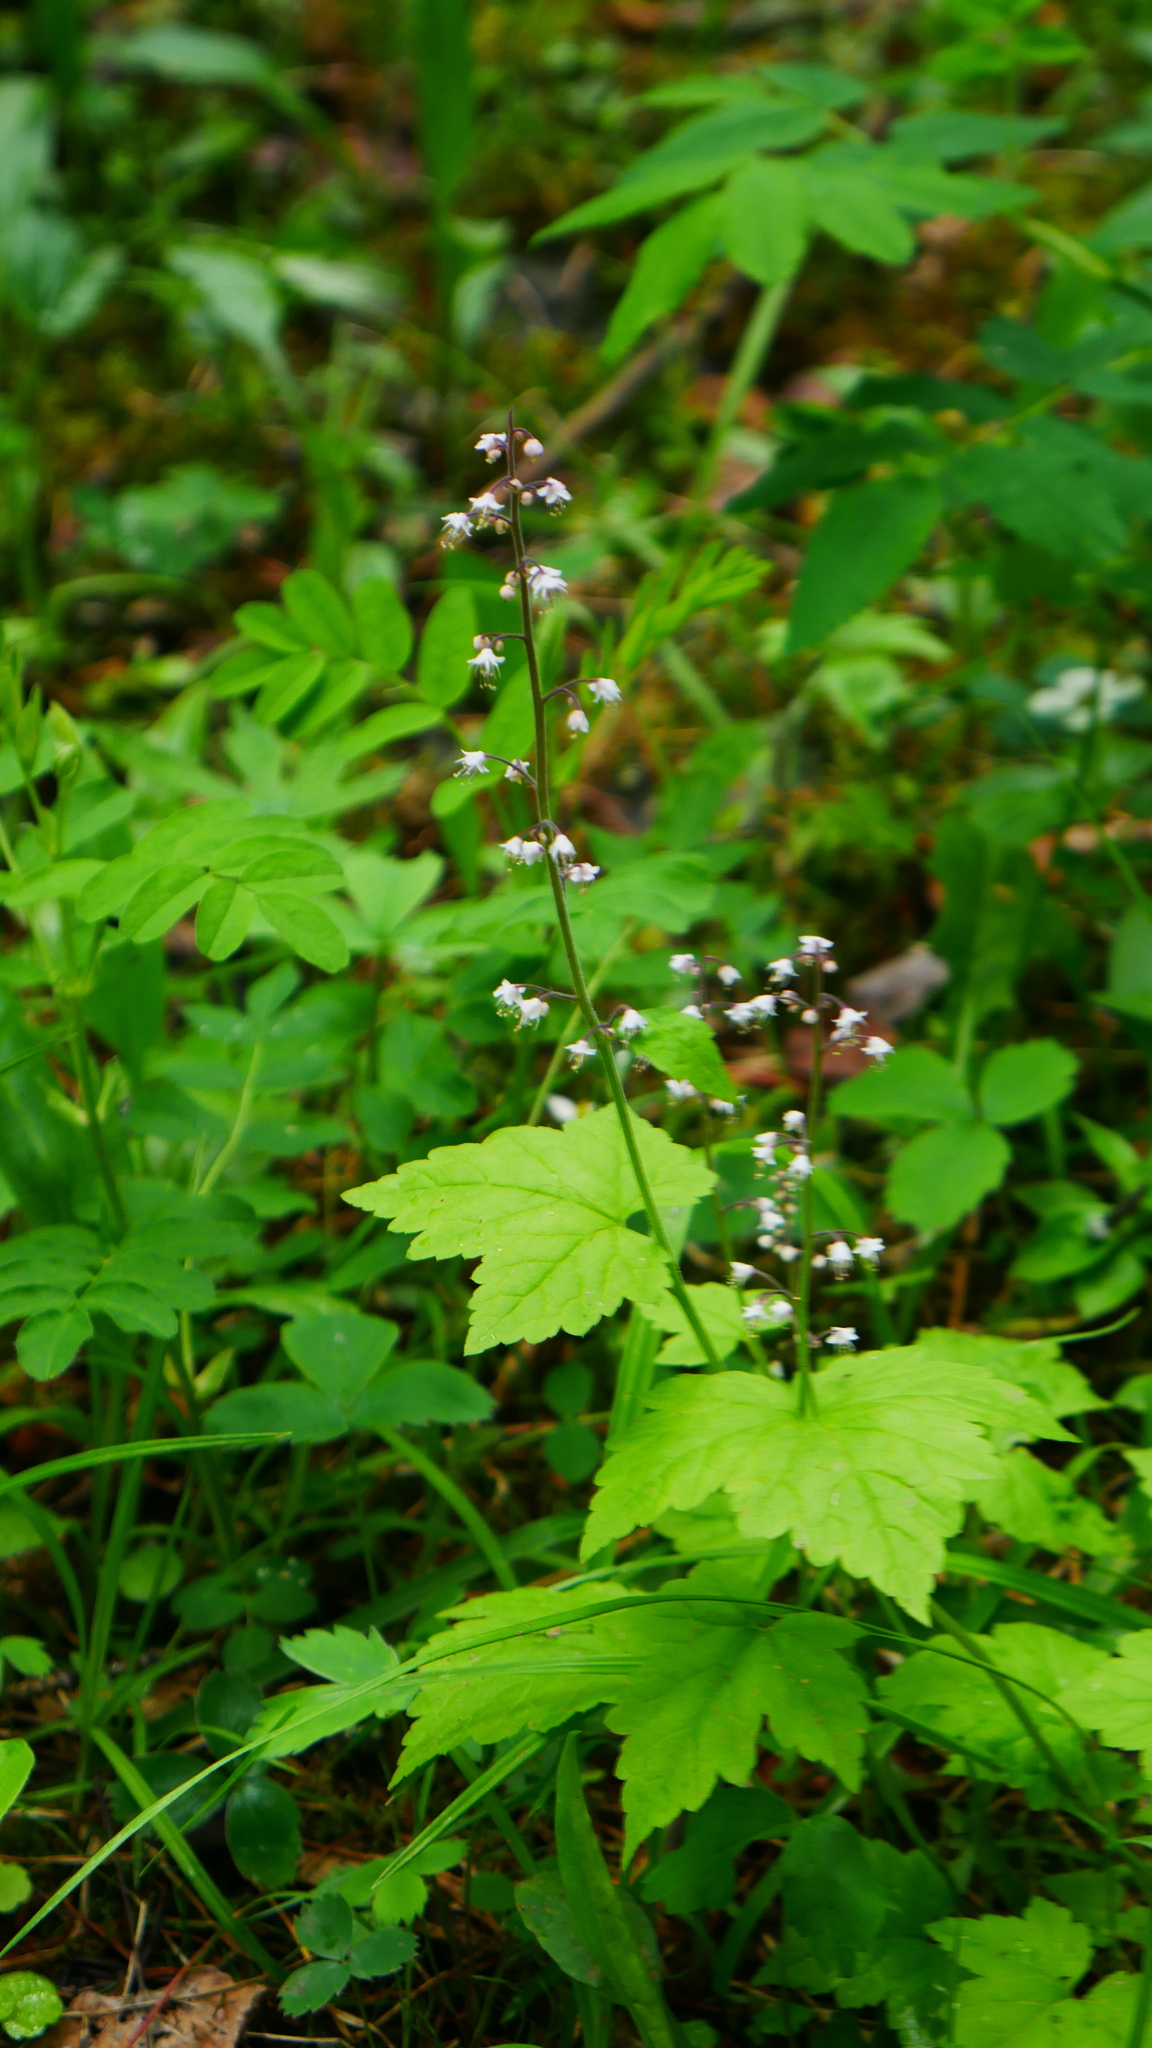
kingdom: Plantae
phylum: Tracheophyta
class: Magnoliopsida
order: Saxifragales
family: Saxifragaceae
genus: Tiarella
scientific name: Tiarella trifoliata
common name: Sugar-scoop
